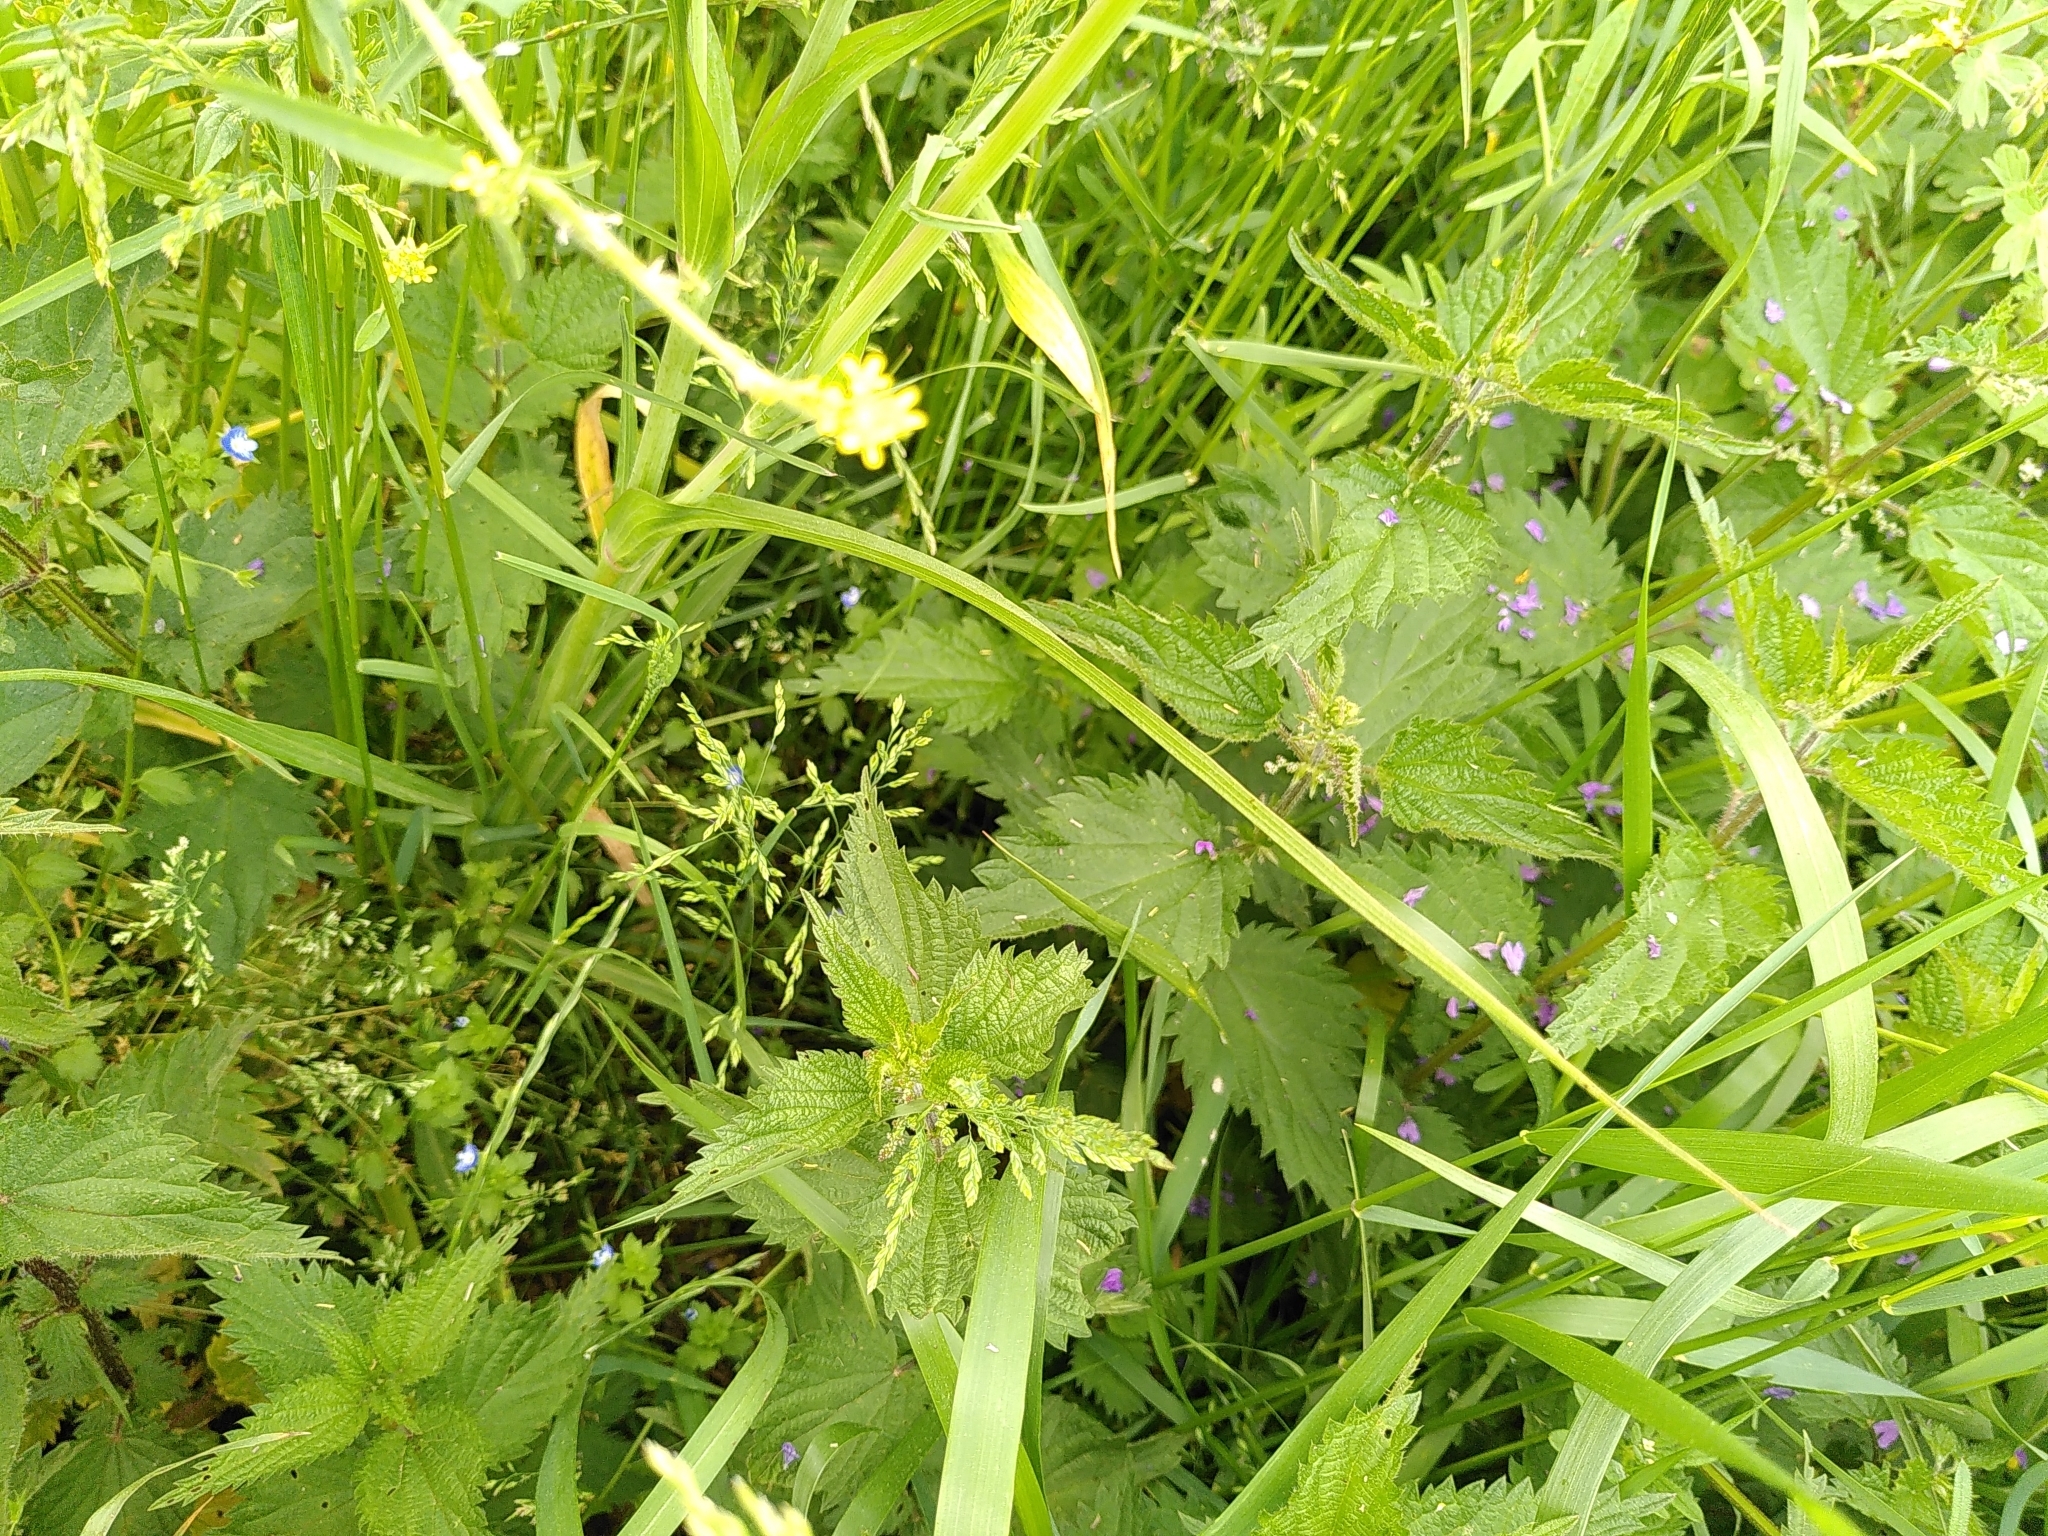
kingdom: Plantae
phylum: Tracheophyta
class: Magnoliopsida
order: Asterales
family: Asteraceae
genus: Tragopogon
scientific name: Tragopogon pratensis
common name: Goat's-beard
